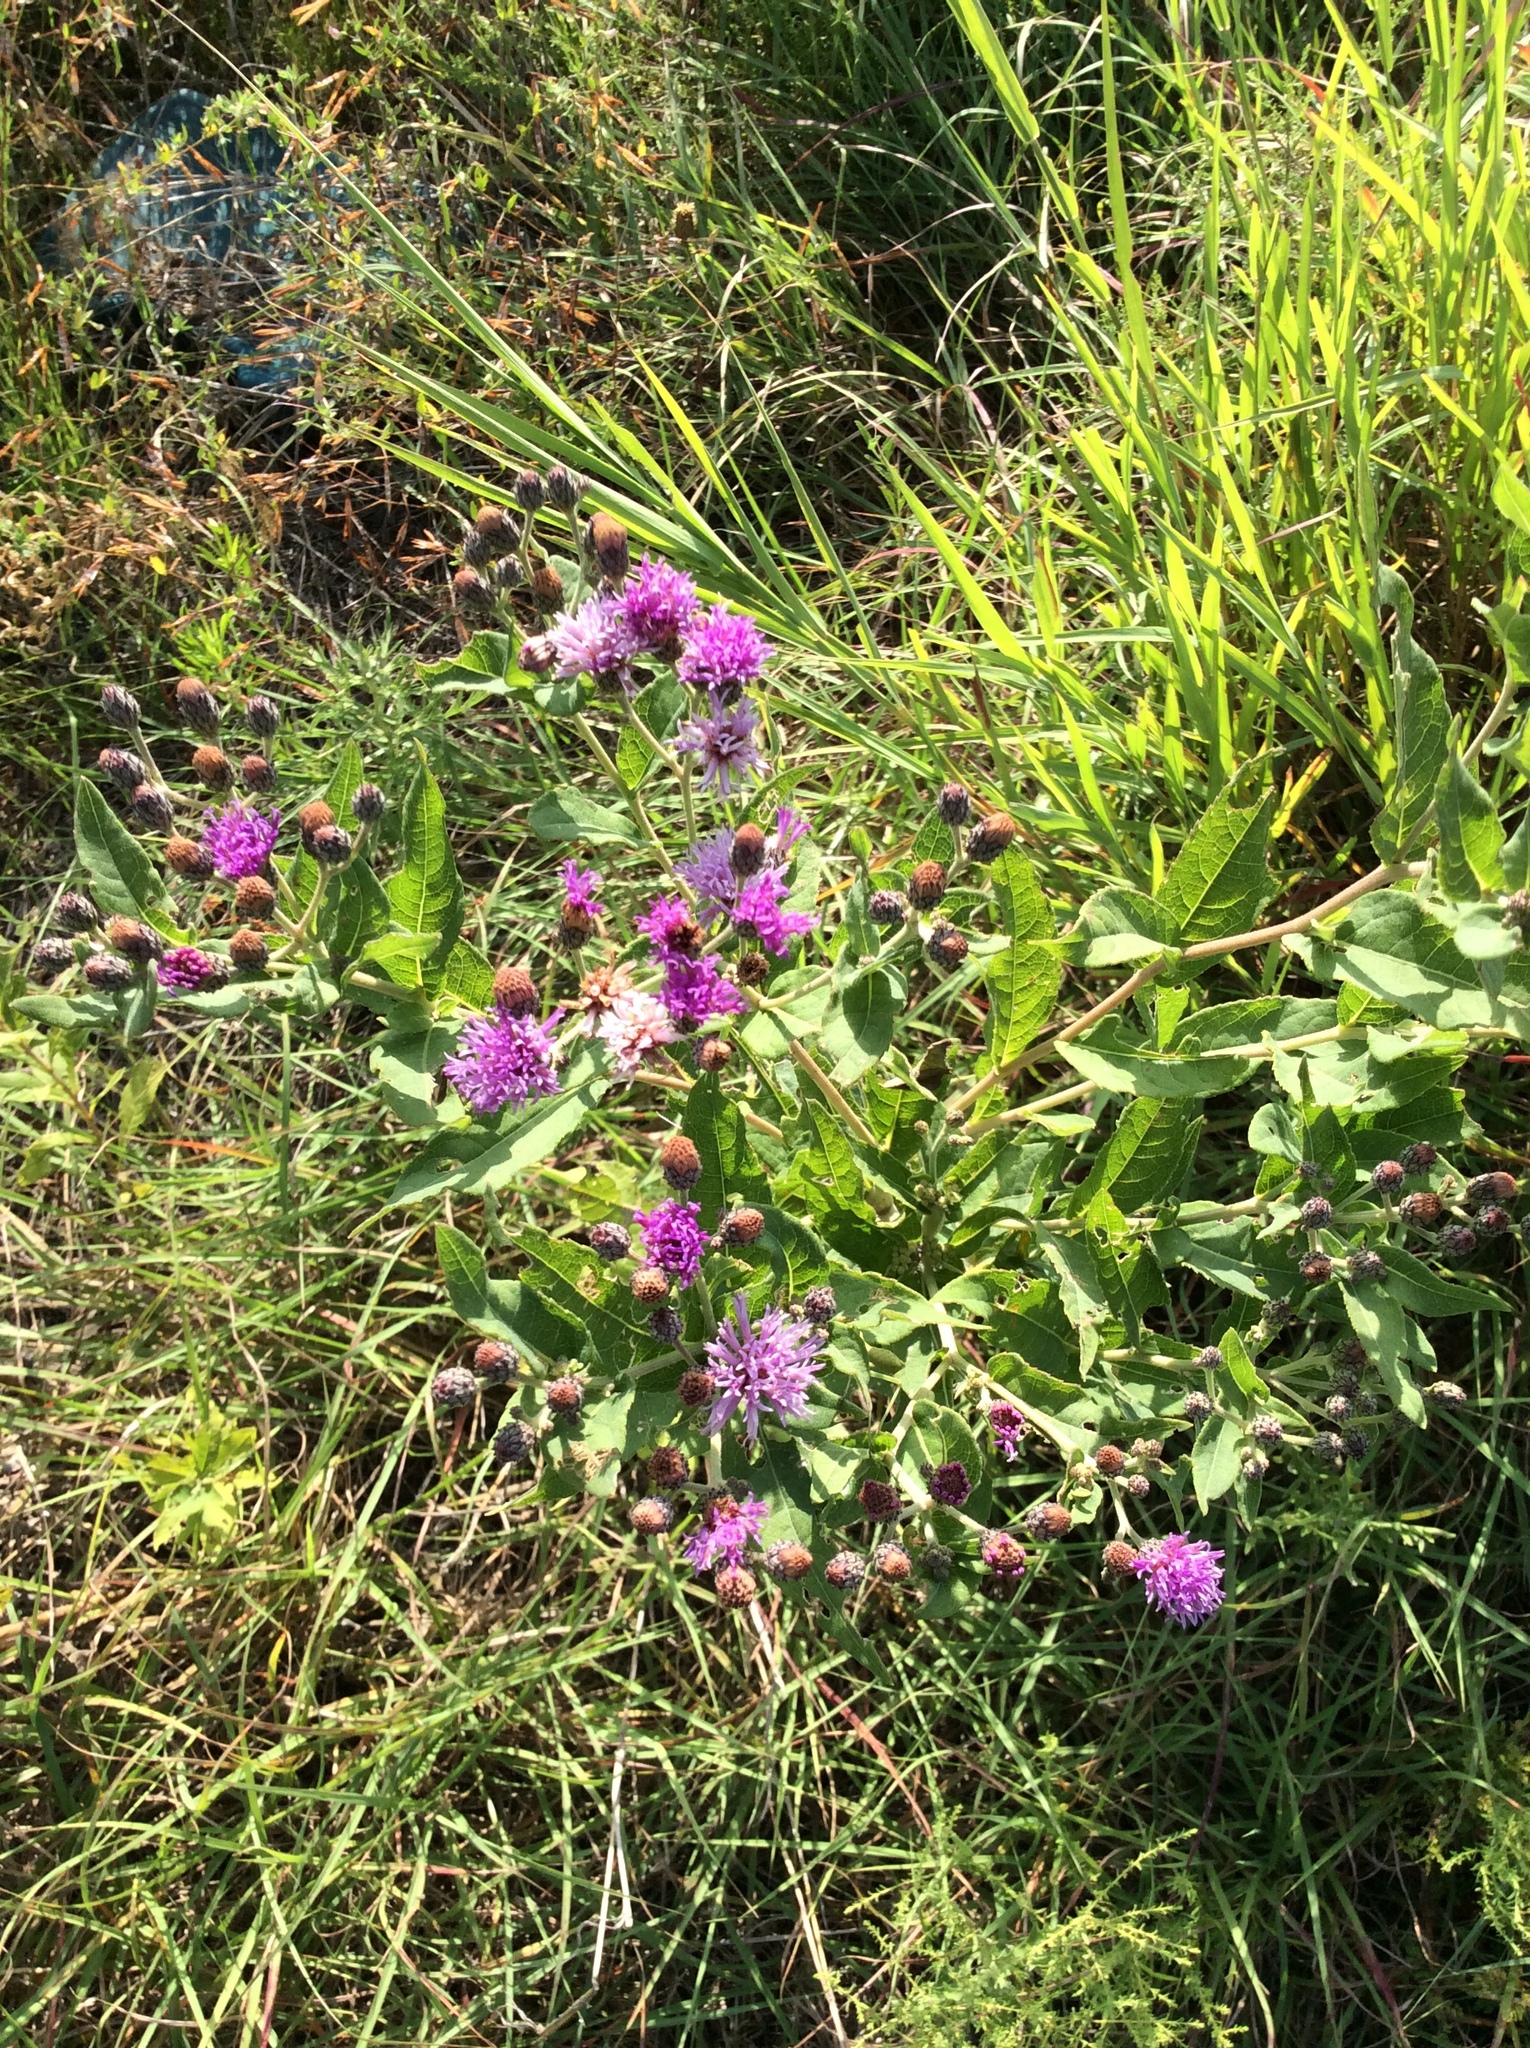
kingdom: Plantae
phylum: Tracheophyta
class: Magnoliopsida
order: Asterales
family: Asteraceae
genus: Vernonia
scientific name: Vernonia baldwinii
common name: Western ironweed
